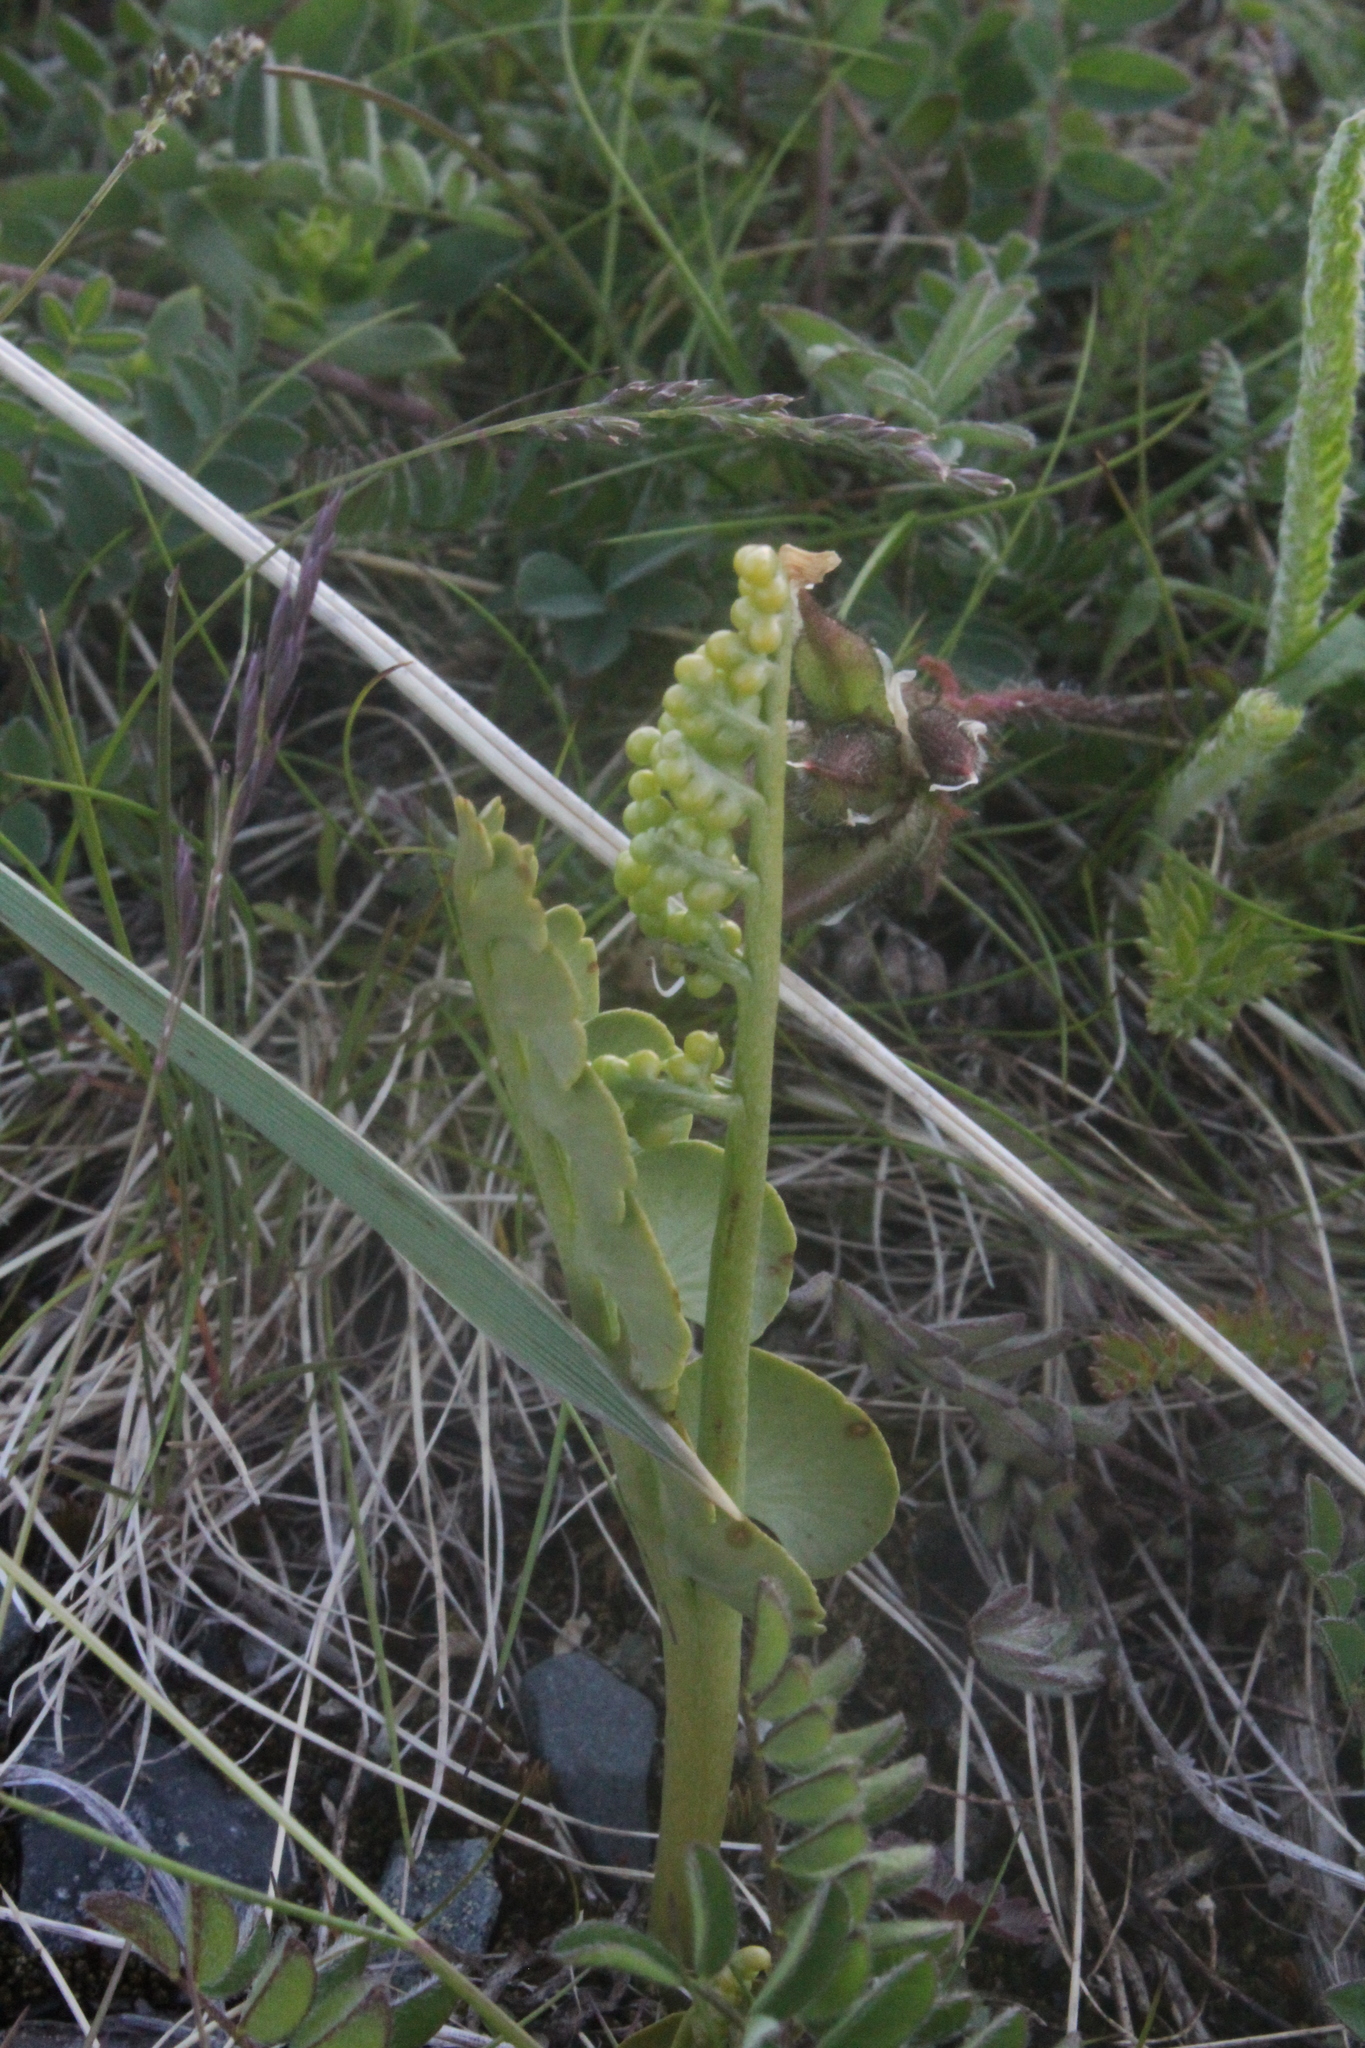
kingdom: Plantae
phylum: Tracheophyta
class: Polypodiopsida
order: Ophioglossales
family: Ophioglossaceae
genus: Botrychium
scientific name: Botrychium lunaria
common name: Moonwort
